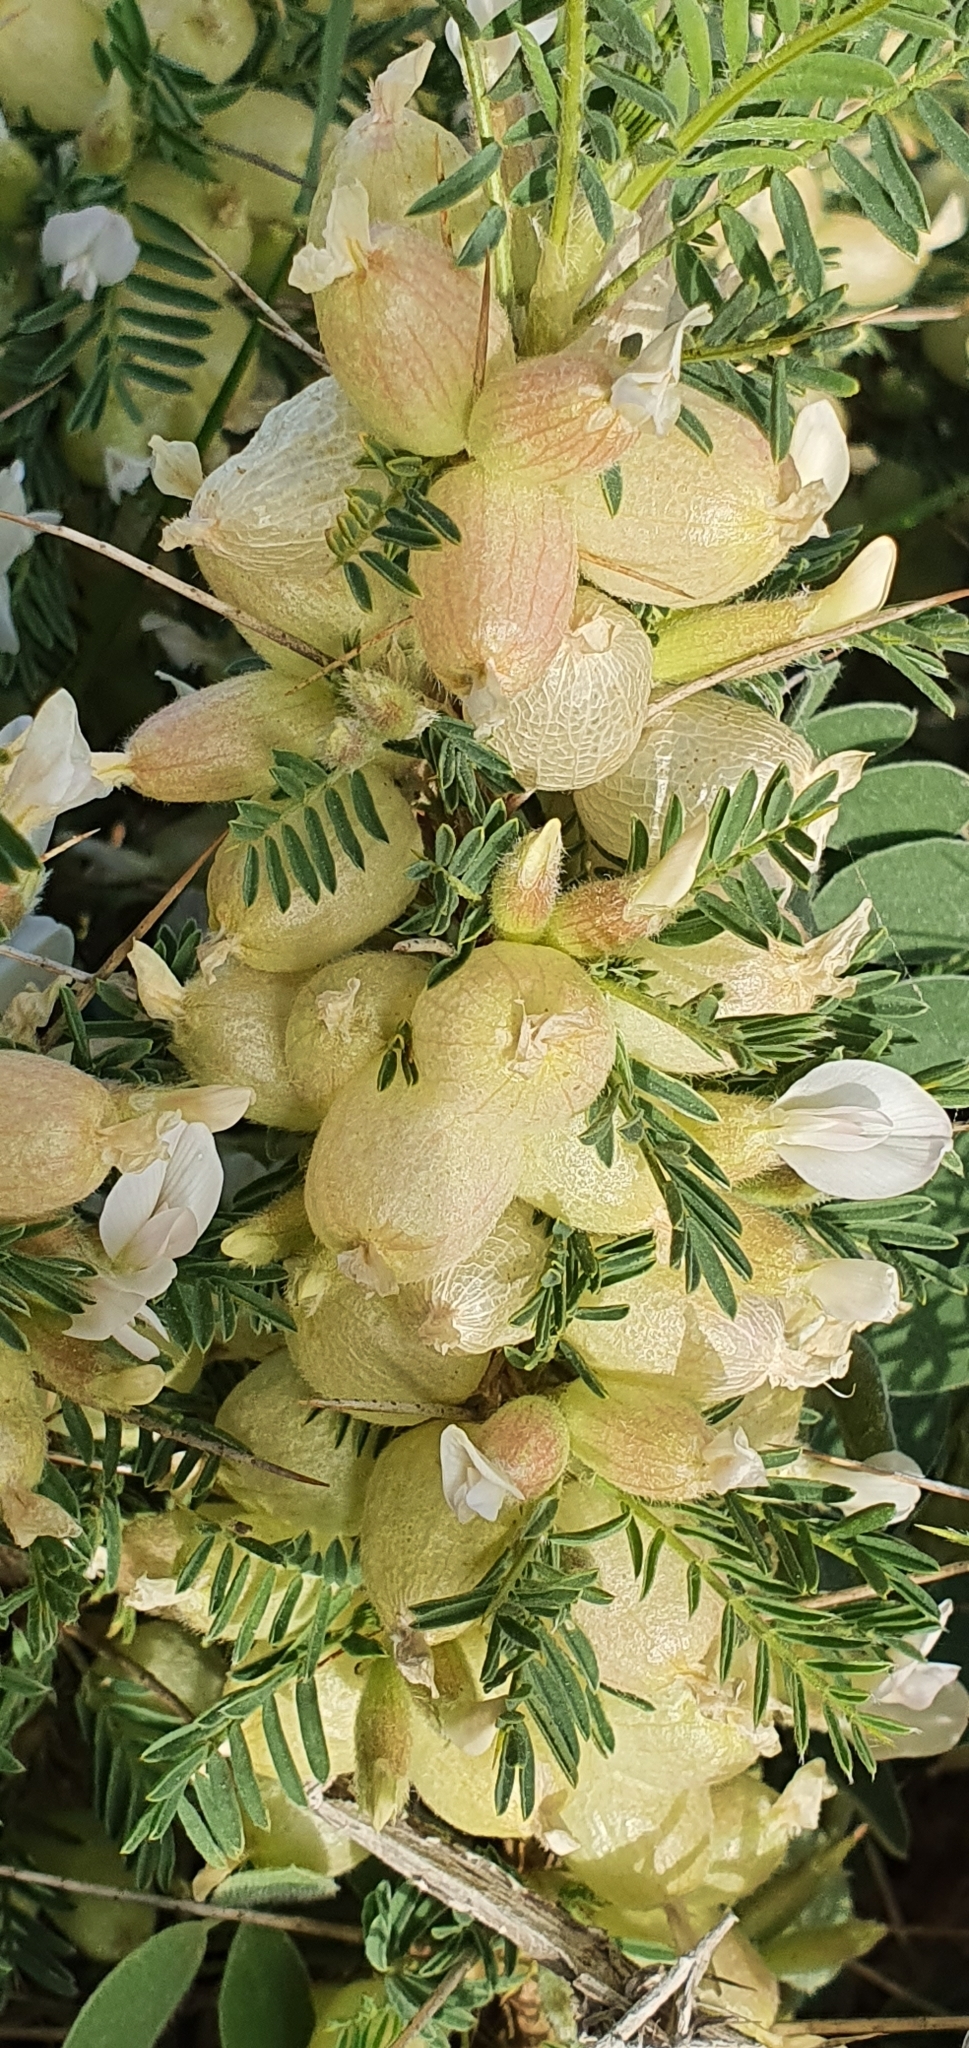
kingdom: Plantae
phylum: Tracheophyta
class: Magnoliopsida
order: Fabales
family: Fabaceae
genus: Astragalus
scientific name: Astragalus armatus
